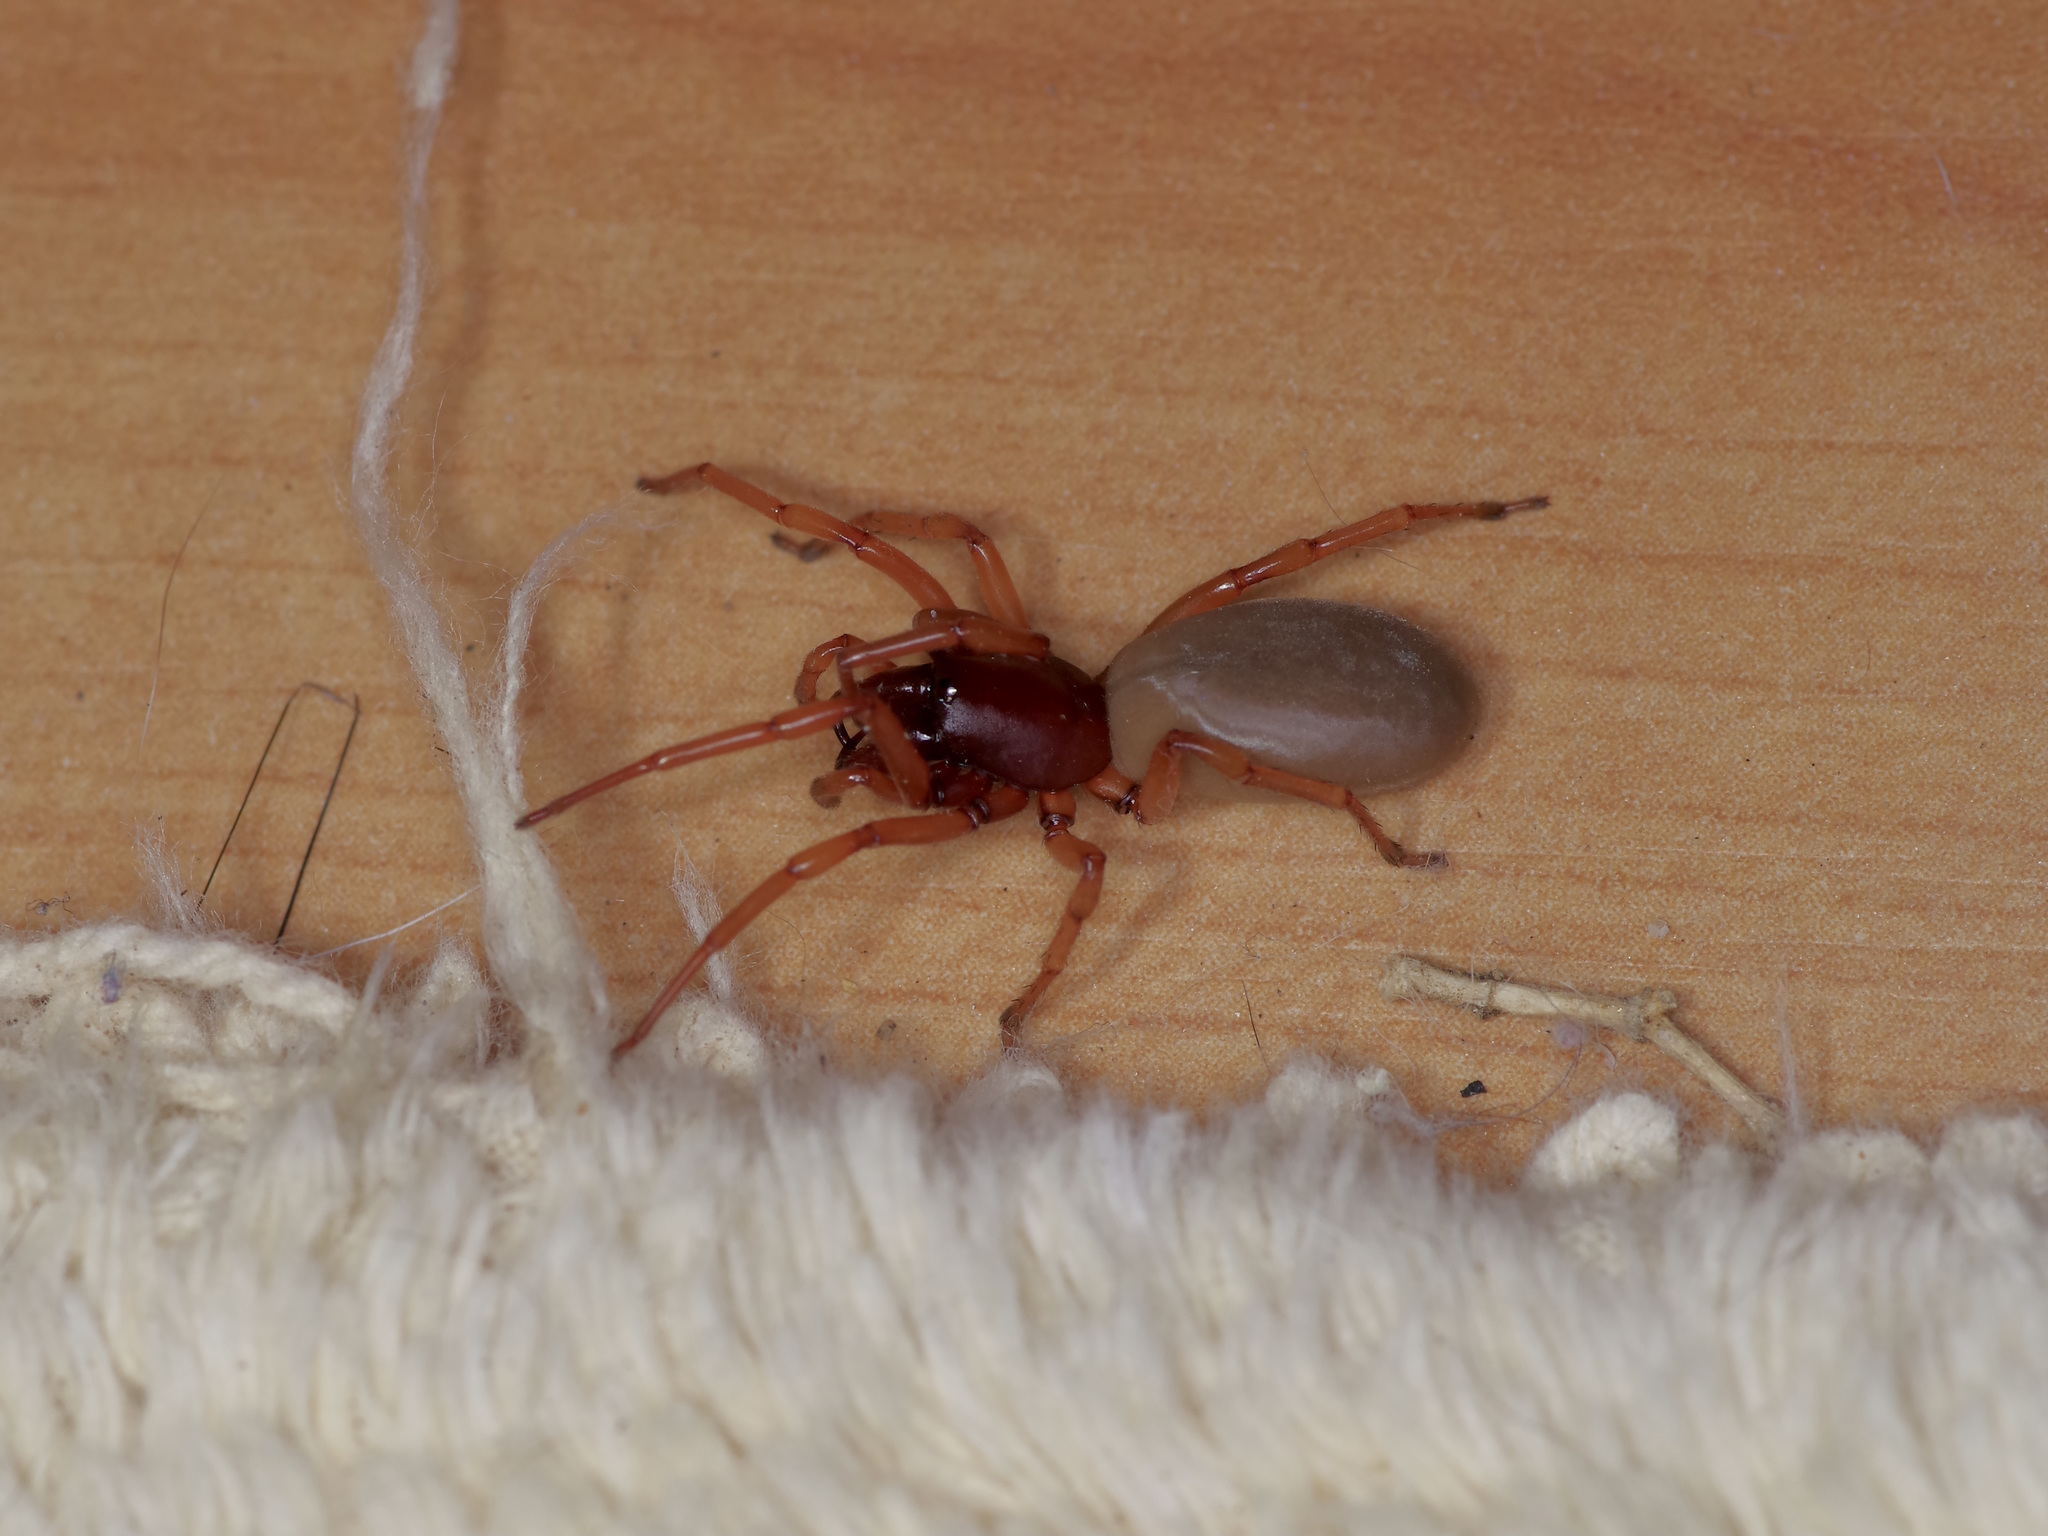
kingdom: Animalia
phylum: Arthropoda
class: Arachnida
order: Araneae
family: Dysderidae
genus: Dysdera
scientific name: Dysdera crocata
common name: Woodlouse spider
